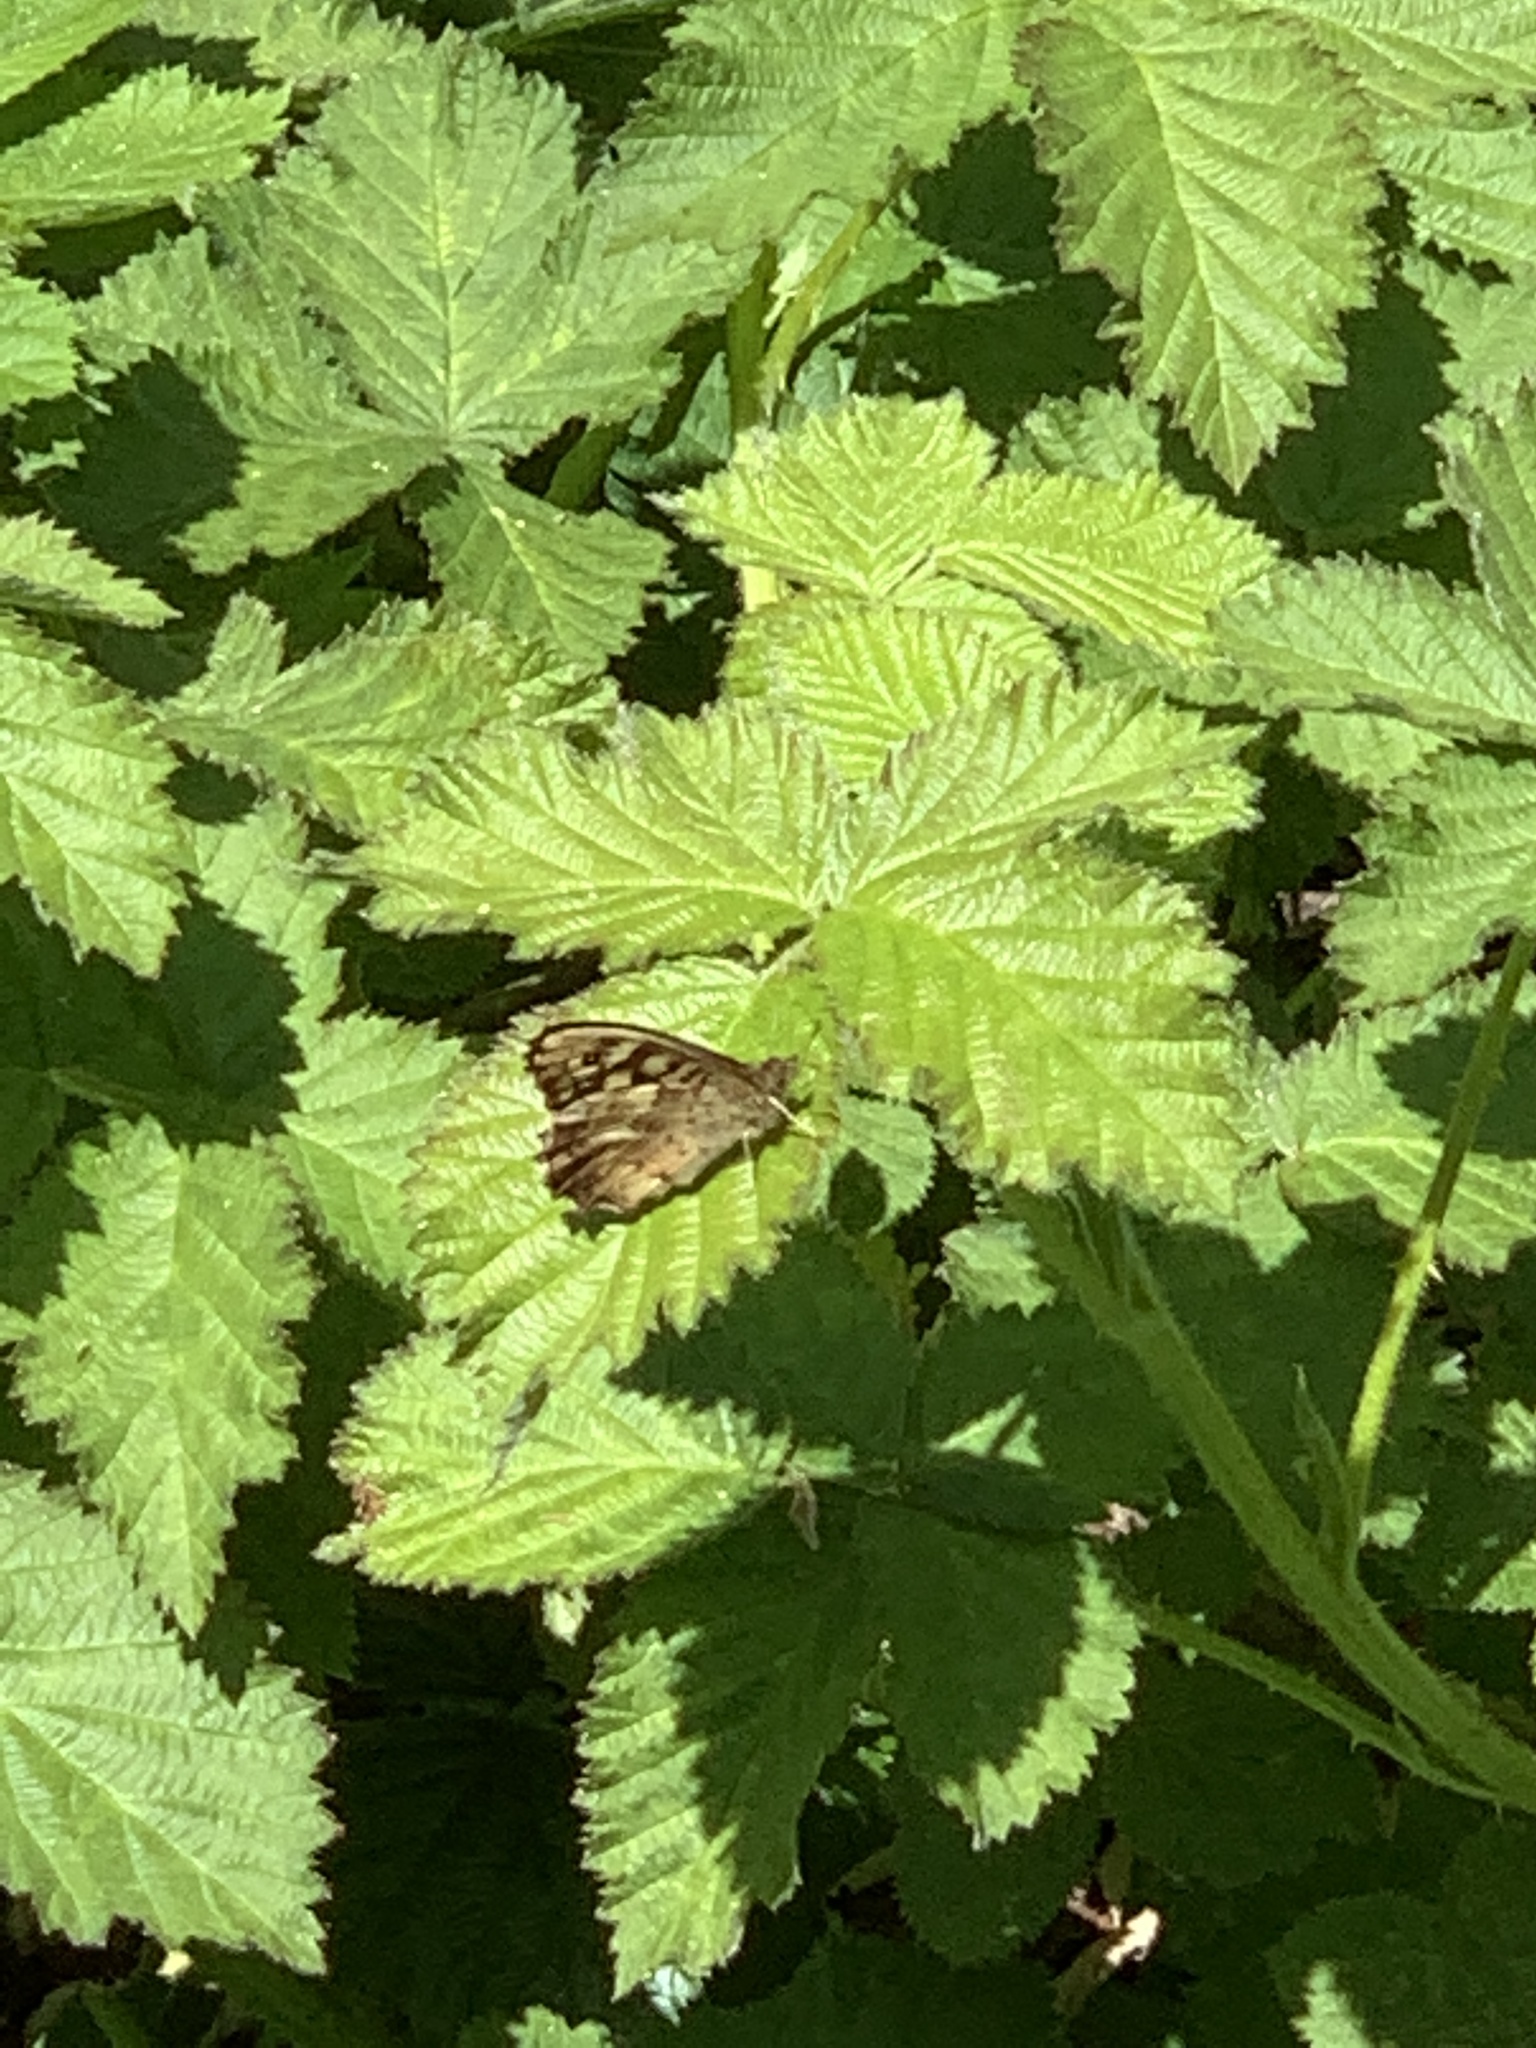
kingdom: Animalia
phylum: Arthropoda
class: Insecta
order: Lepidoptera
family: Nymphalidae
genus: Pararge
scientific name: Pararge aegeria
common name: Speckled wood
